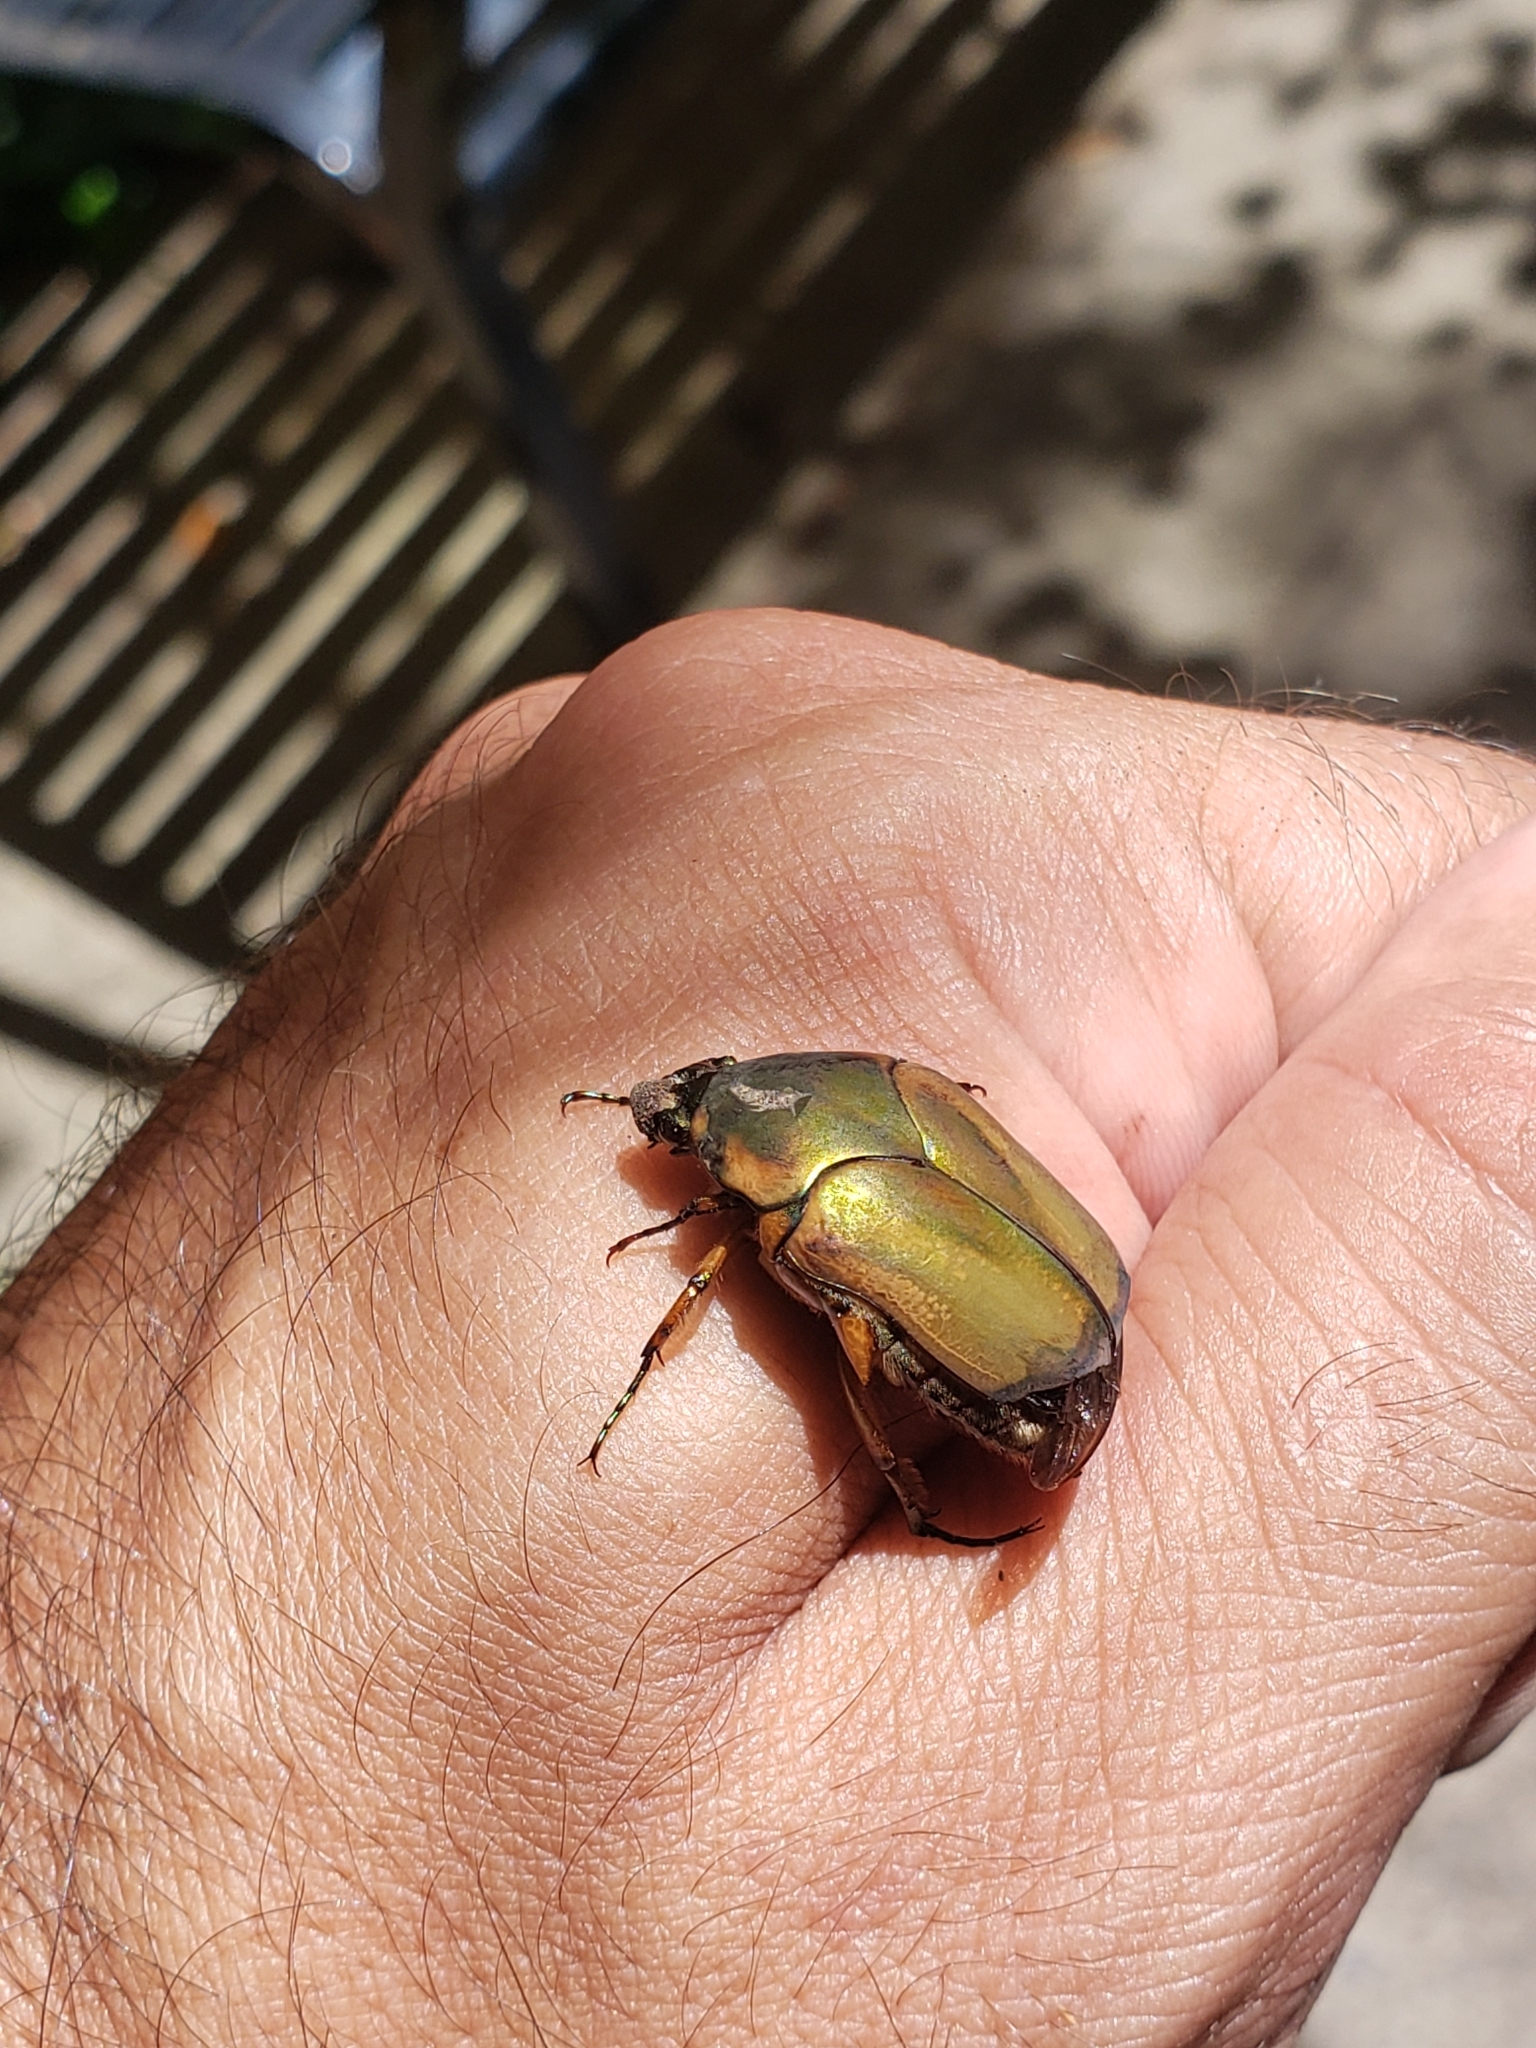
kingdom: Animalia
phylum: Arthropoda
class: Insecta
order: Coleoptera
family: Scarabaeidae
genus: Cotinis
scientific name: Cotinis nitida
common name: Common green june beetle
